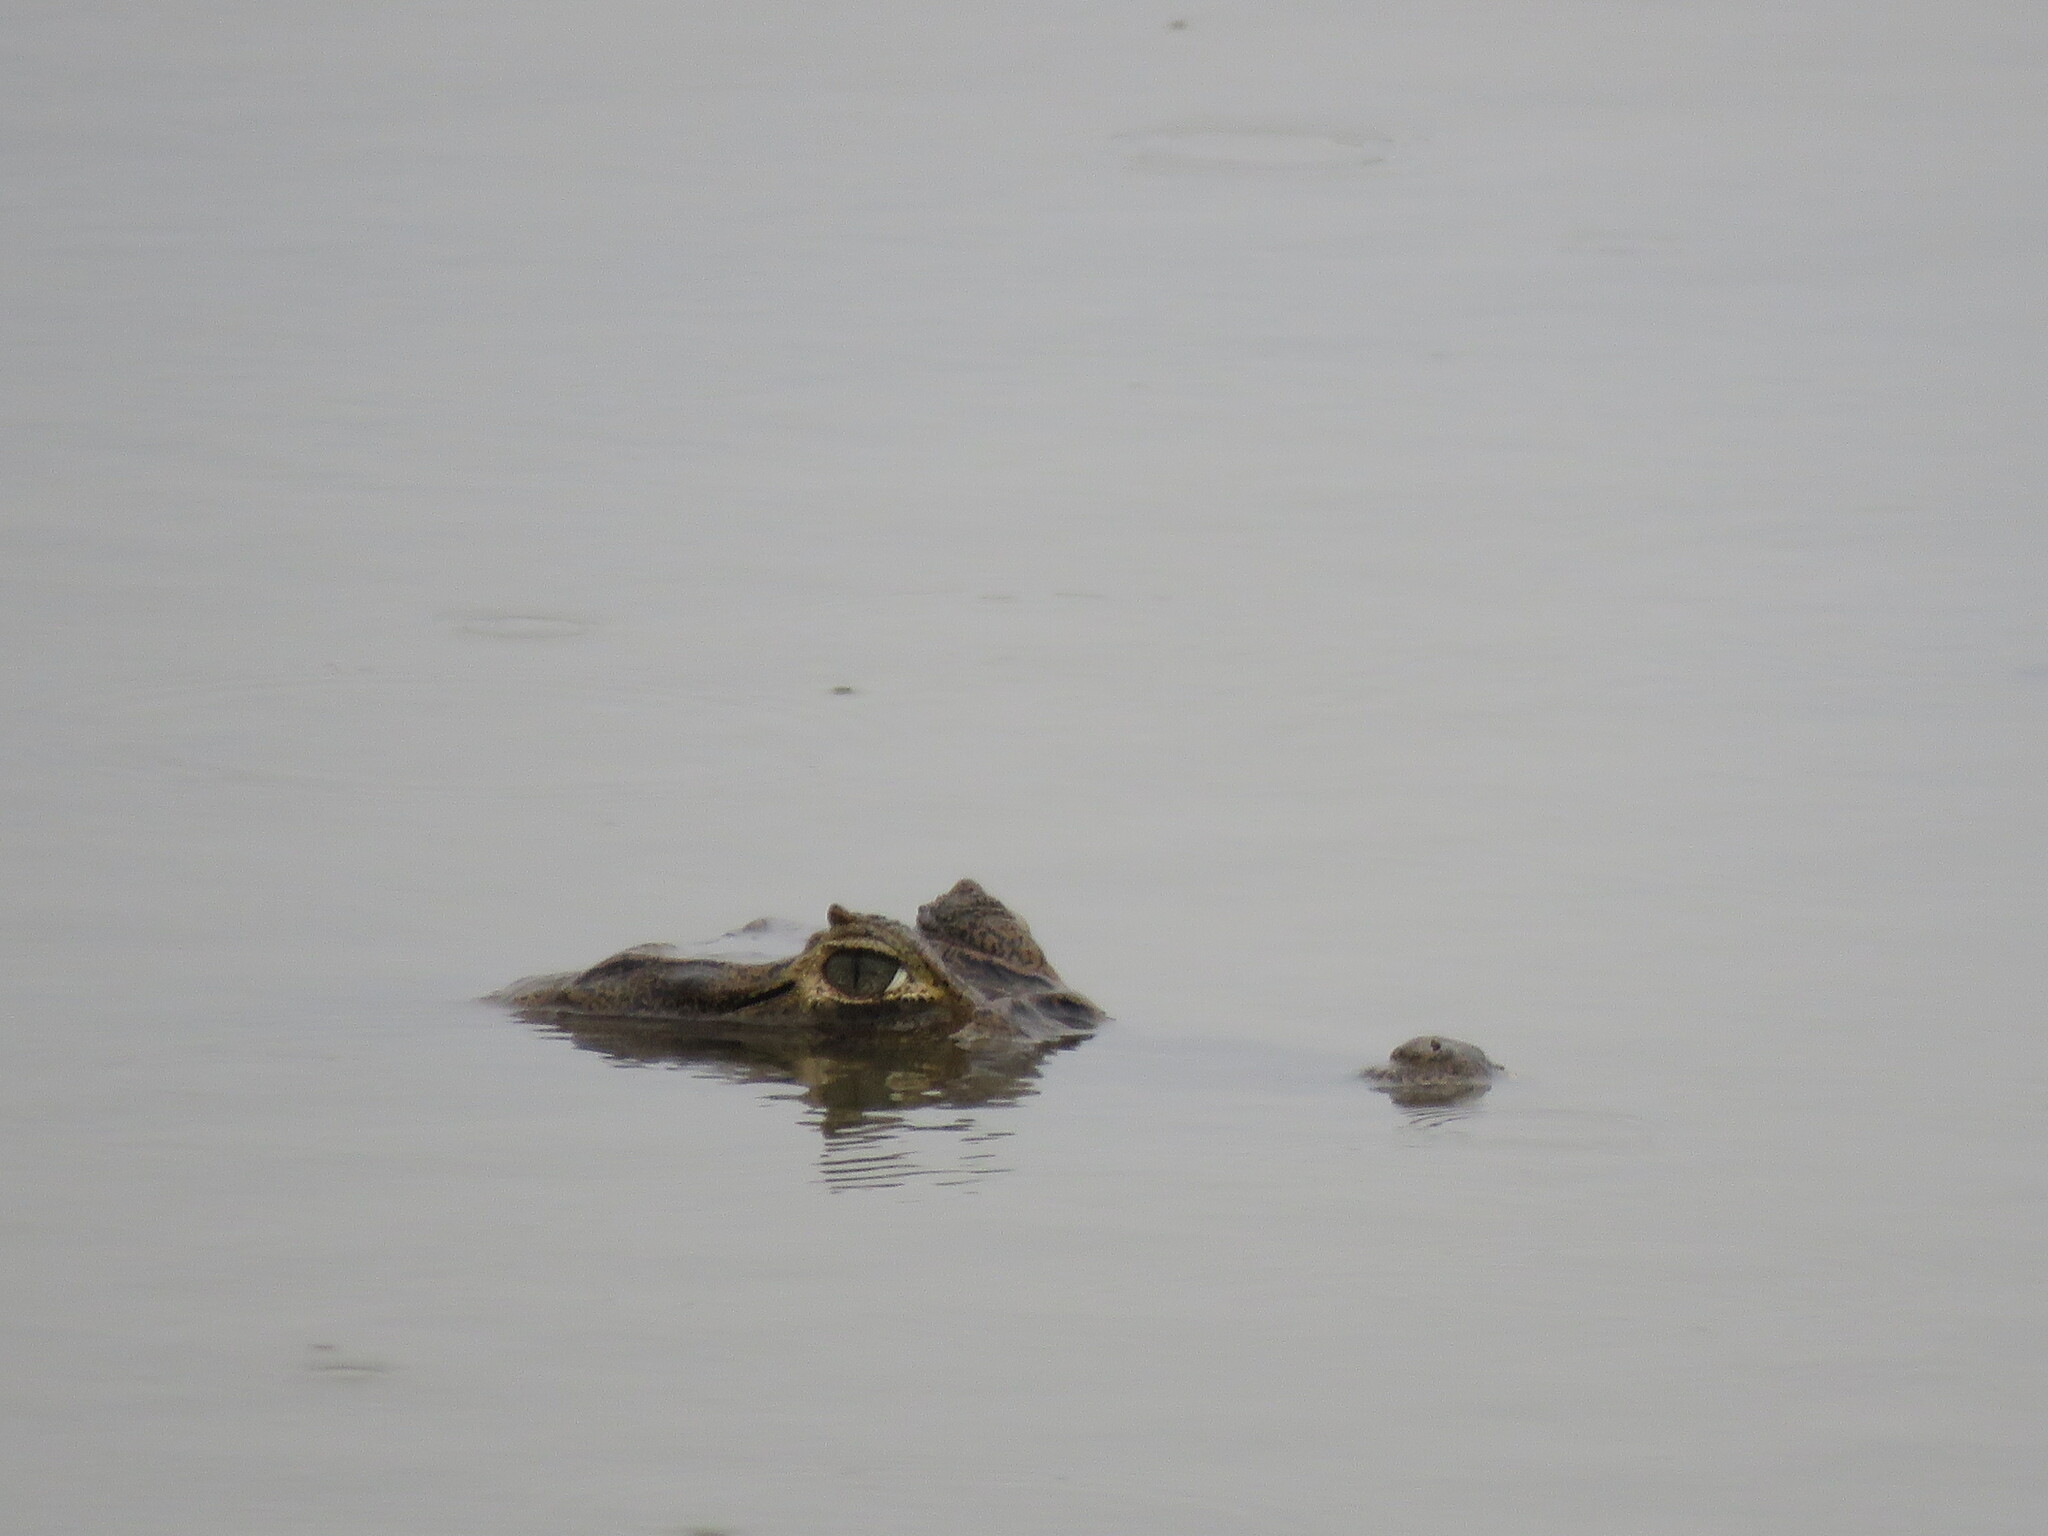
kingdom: Animalia
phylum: Chordata
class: Crocodylia
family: Alligatoridae
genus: Caiman
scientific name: Caiman yacare
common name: Yacare caiman
